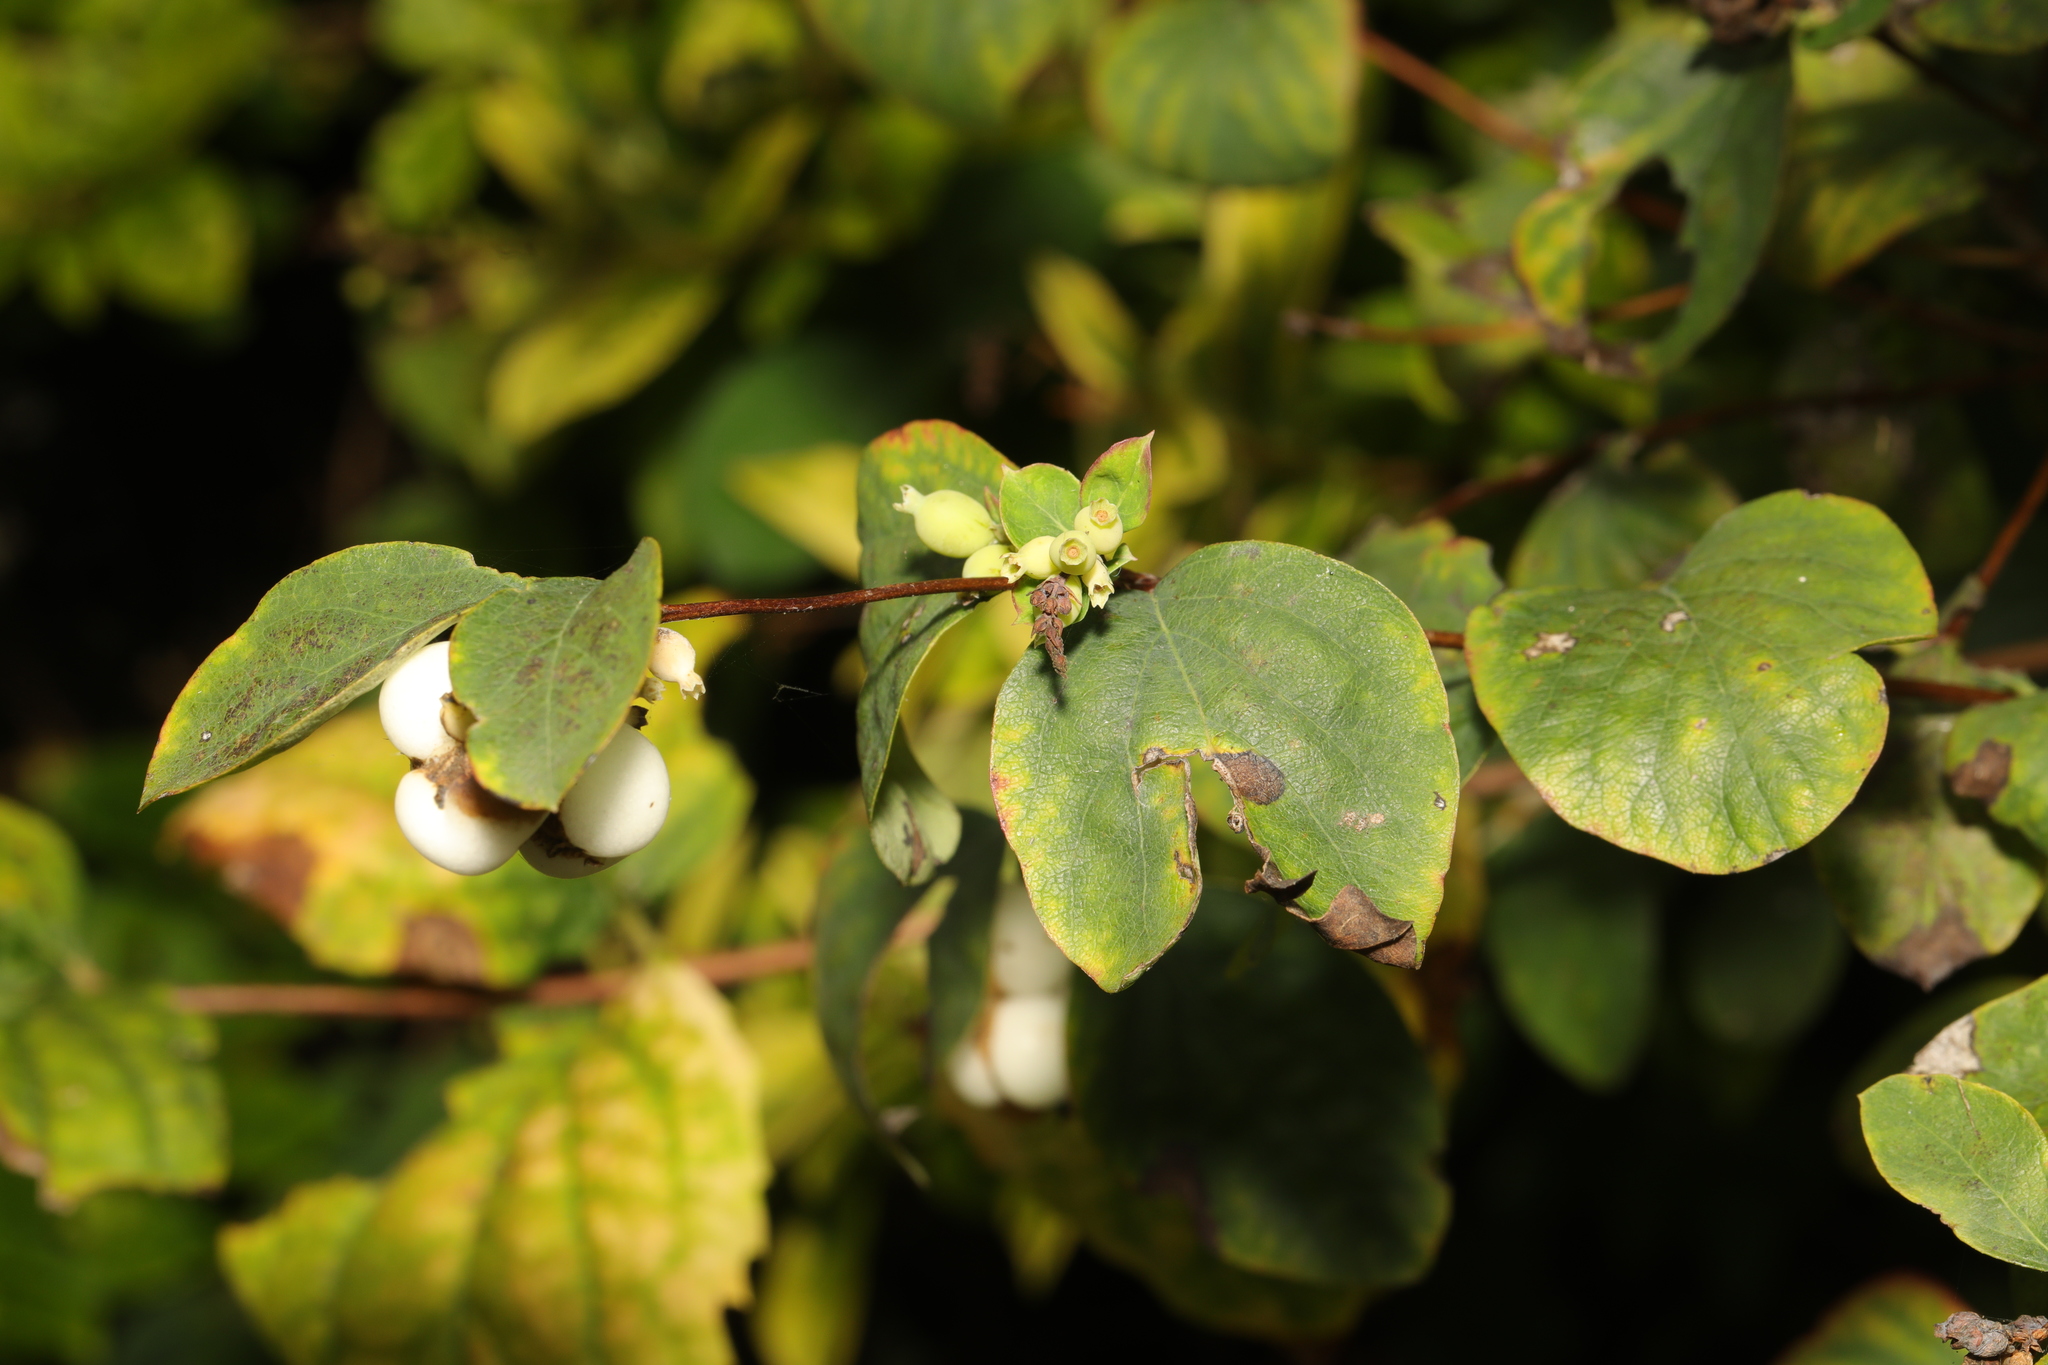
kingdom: Plantae
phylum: Tracheophyta
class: Magnoliopsida
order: Dipsacales
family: Caprifoliaceae
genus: Symphoricarpos
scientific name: Symphoricarpos albus
